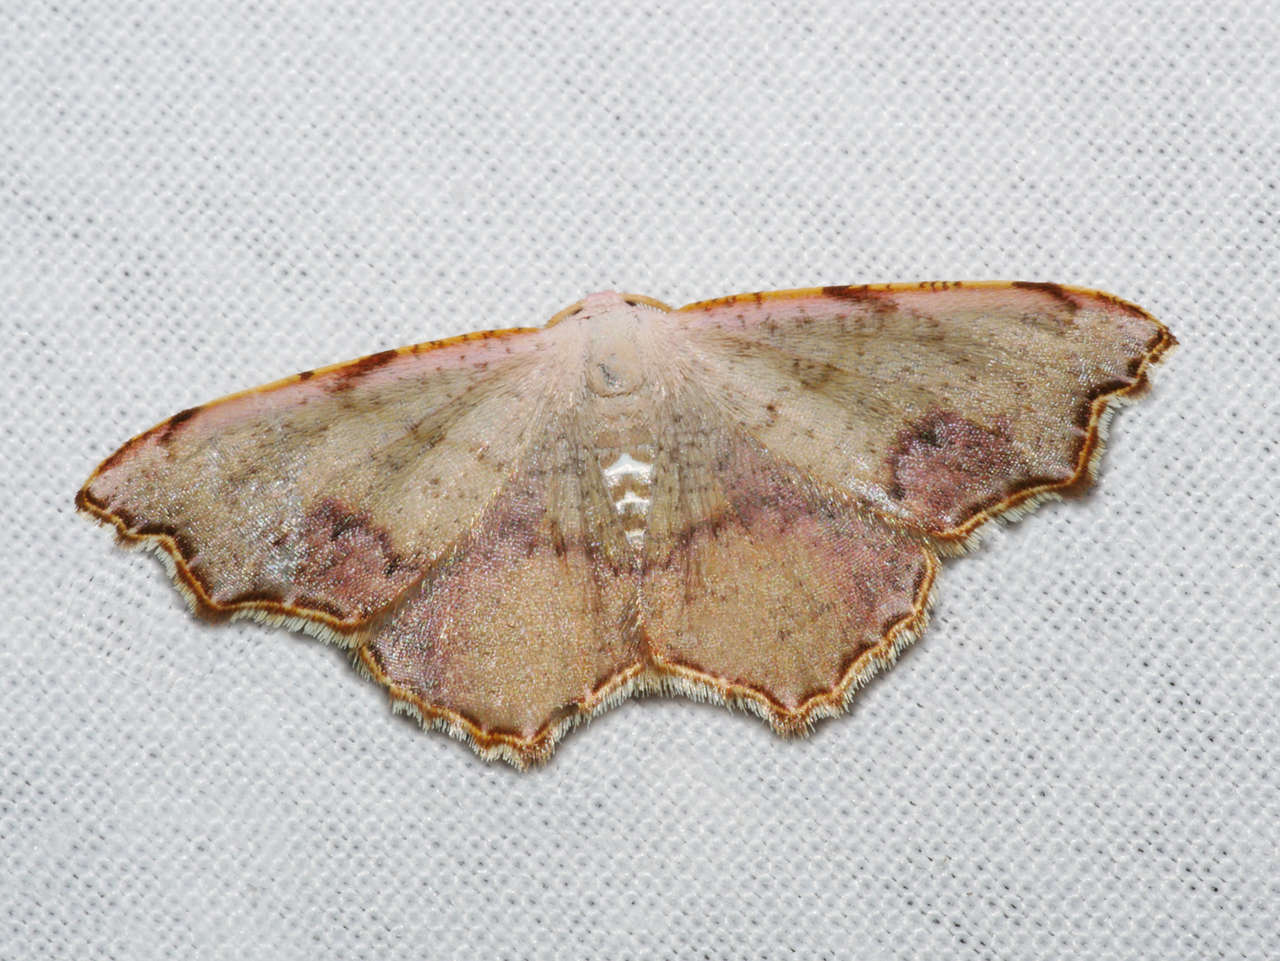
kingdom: Animalia
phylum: Arthropoda
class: Insecta
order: Lepidoptera
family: Geometridae
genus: Epicompsa
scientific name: Epicompsa xanthocrossa
